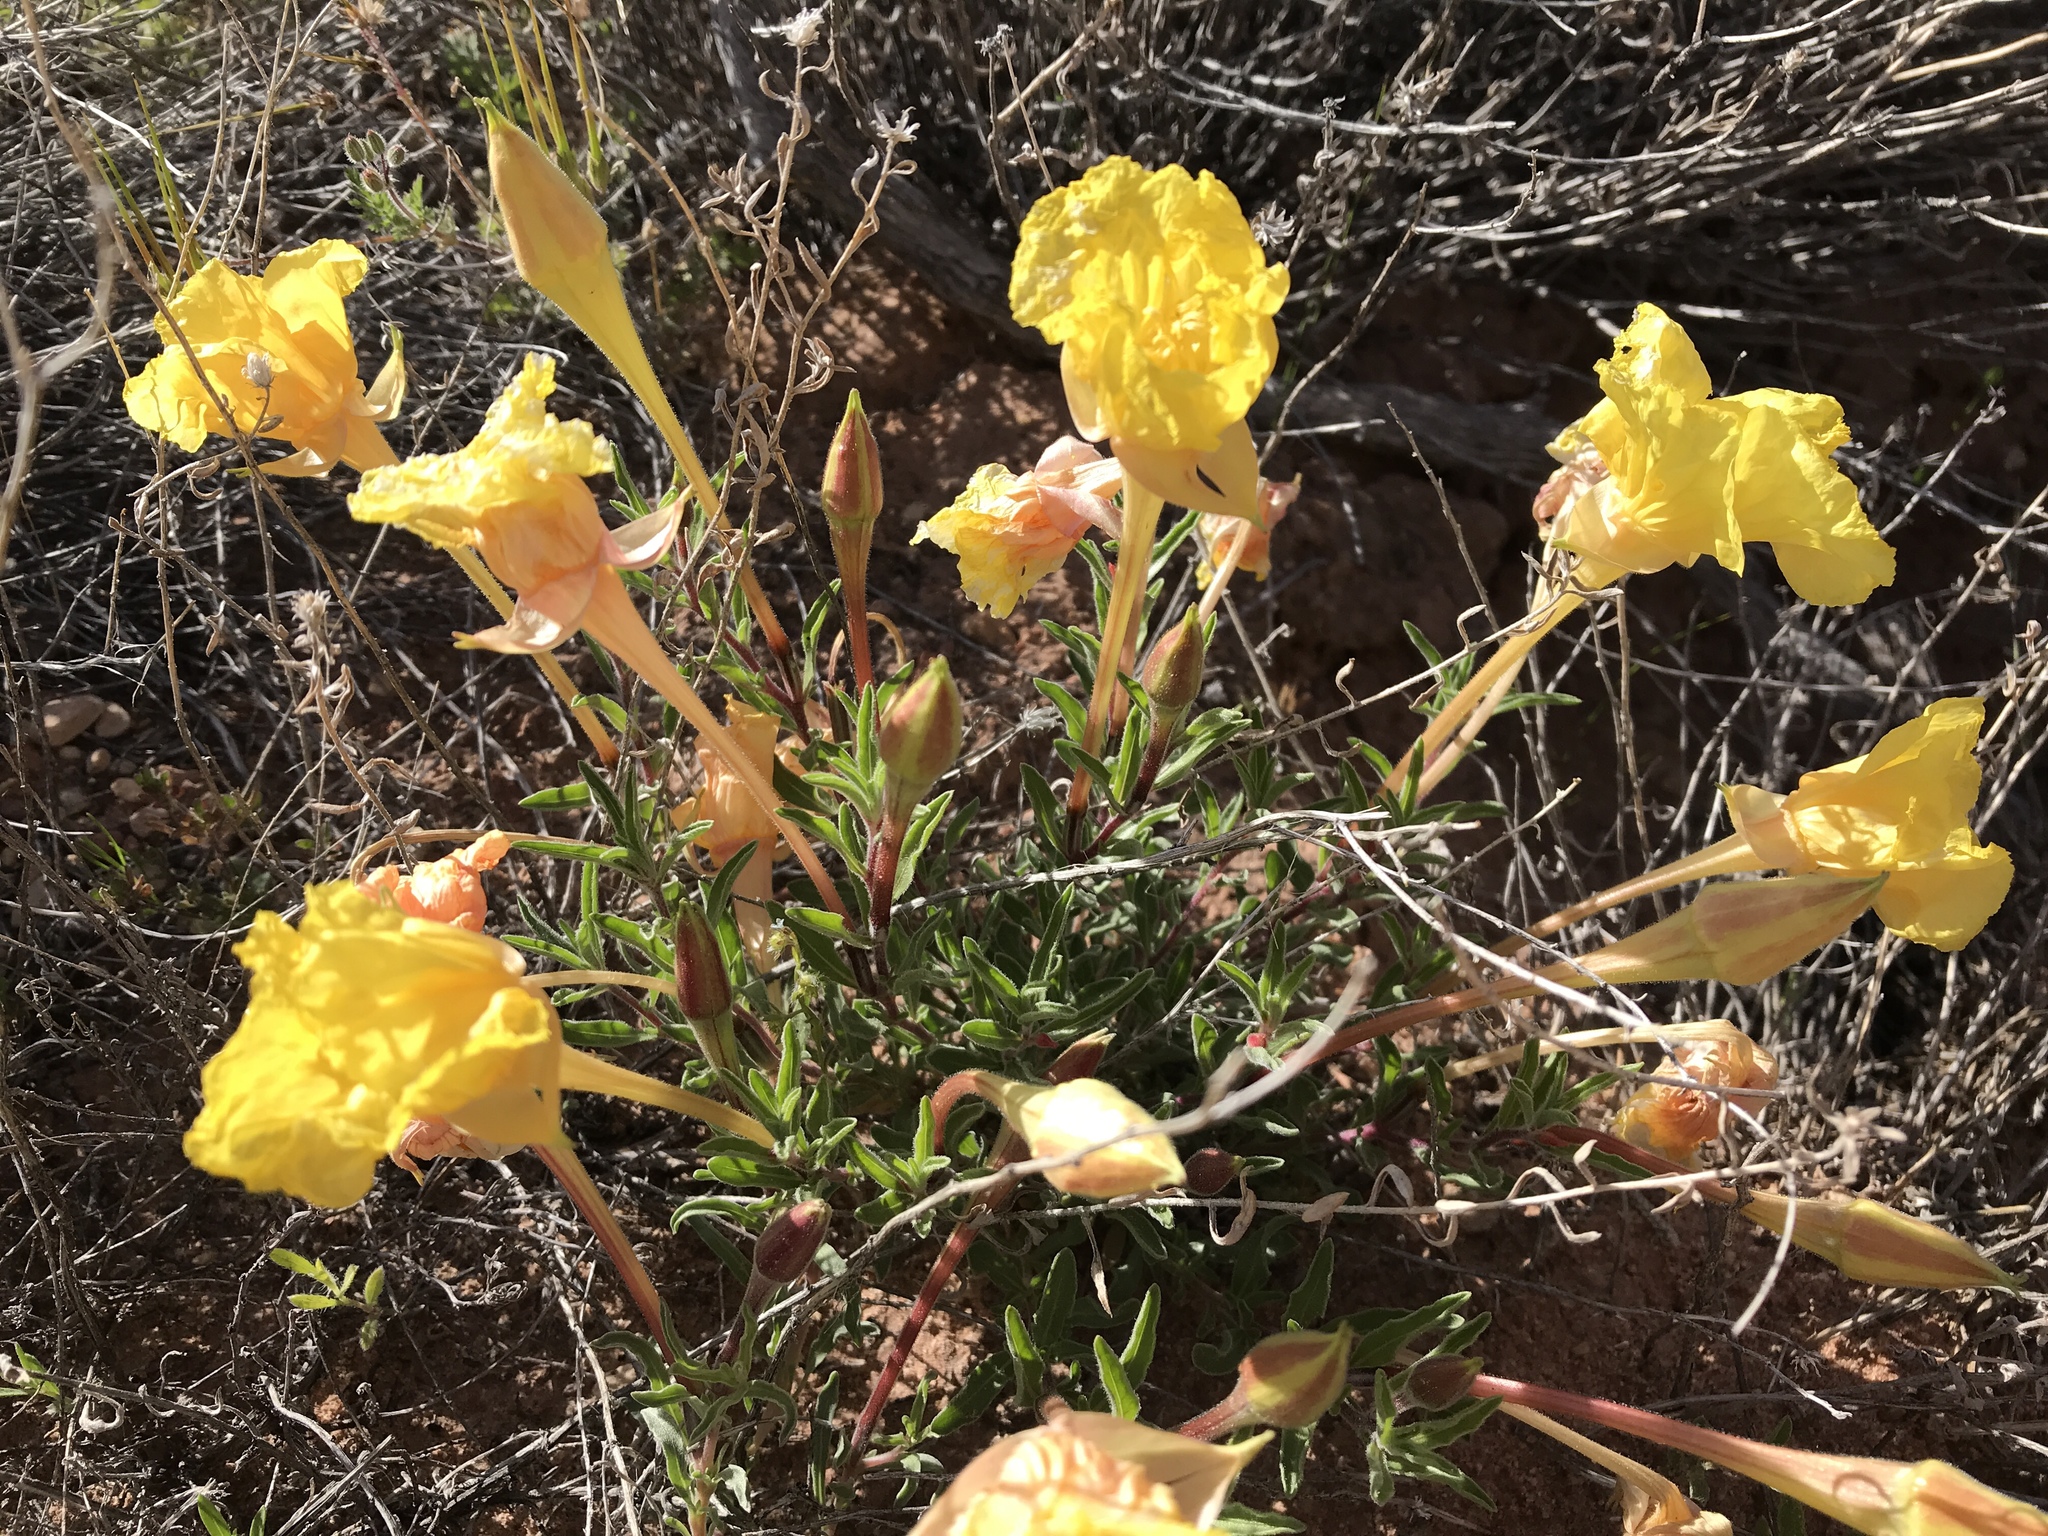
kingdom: Plantae
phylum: Tracheophyta
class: Magnoliopsida
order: Myrtales
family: Onagraceae
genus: Oenothera
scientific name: Oenothera lavandulifolia
